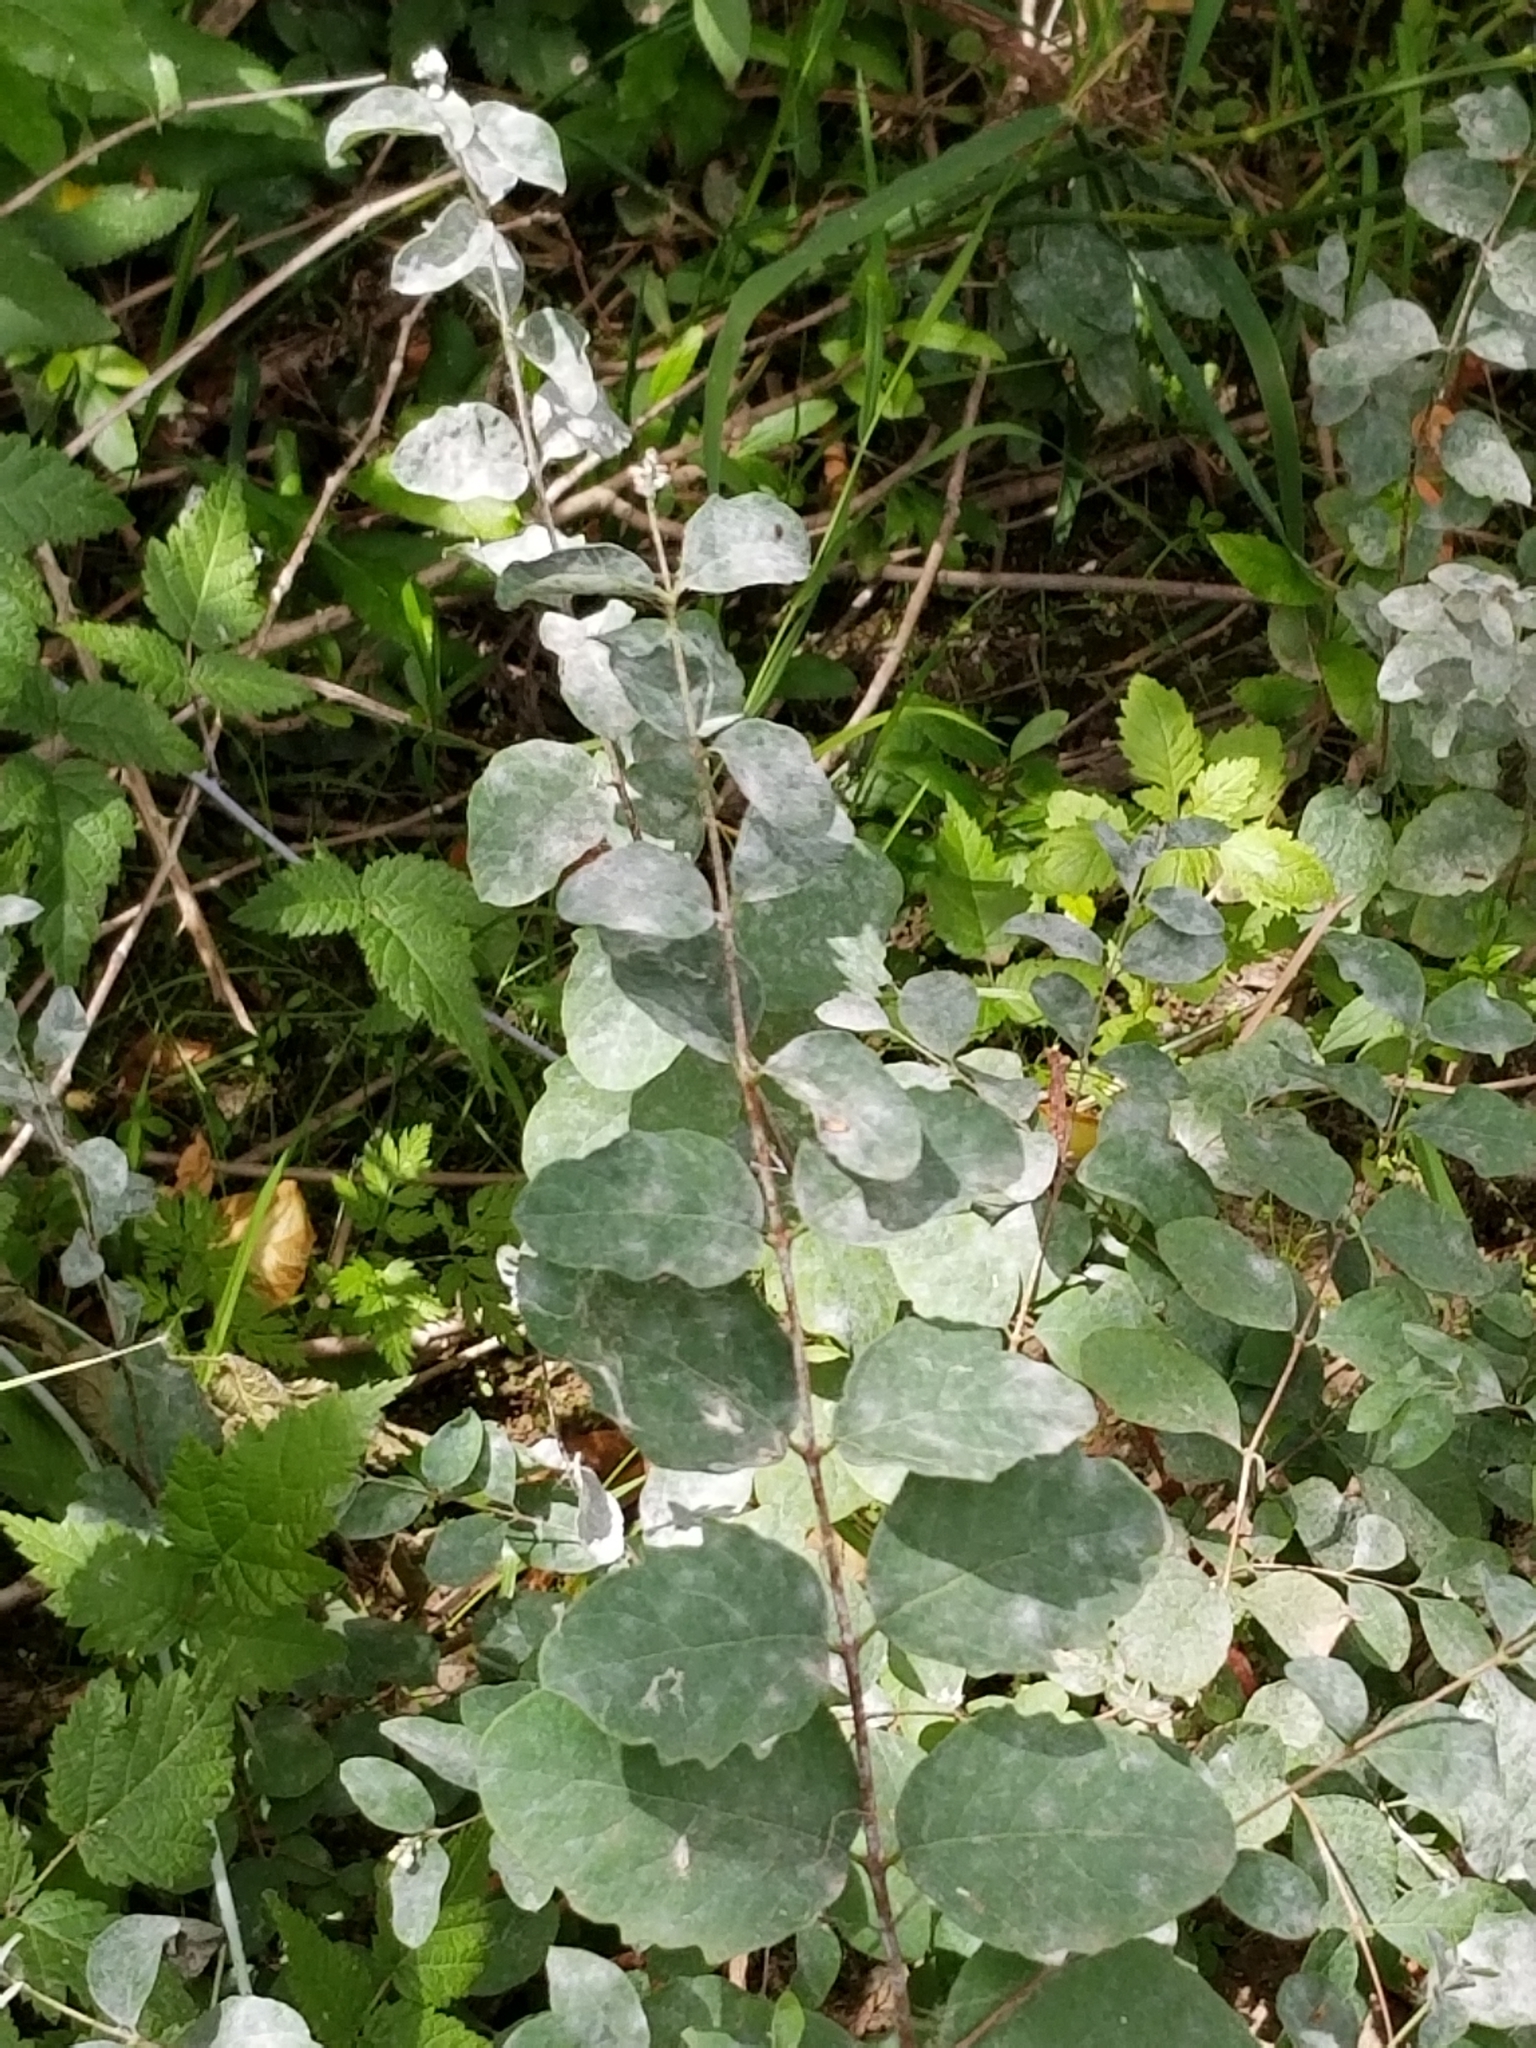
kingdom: Plantae
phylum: Tracheophyta
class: Magnoliopsida
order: Dipsacales
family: Caprifoliaceae
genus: Symphoricarpos
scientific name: Symphoricarpos albus
